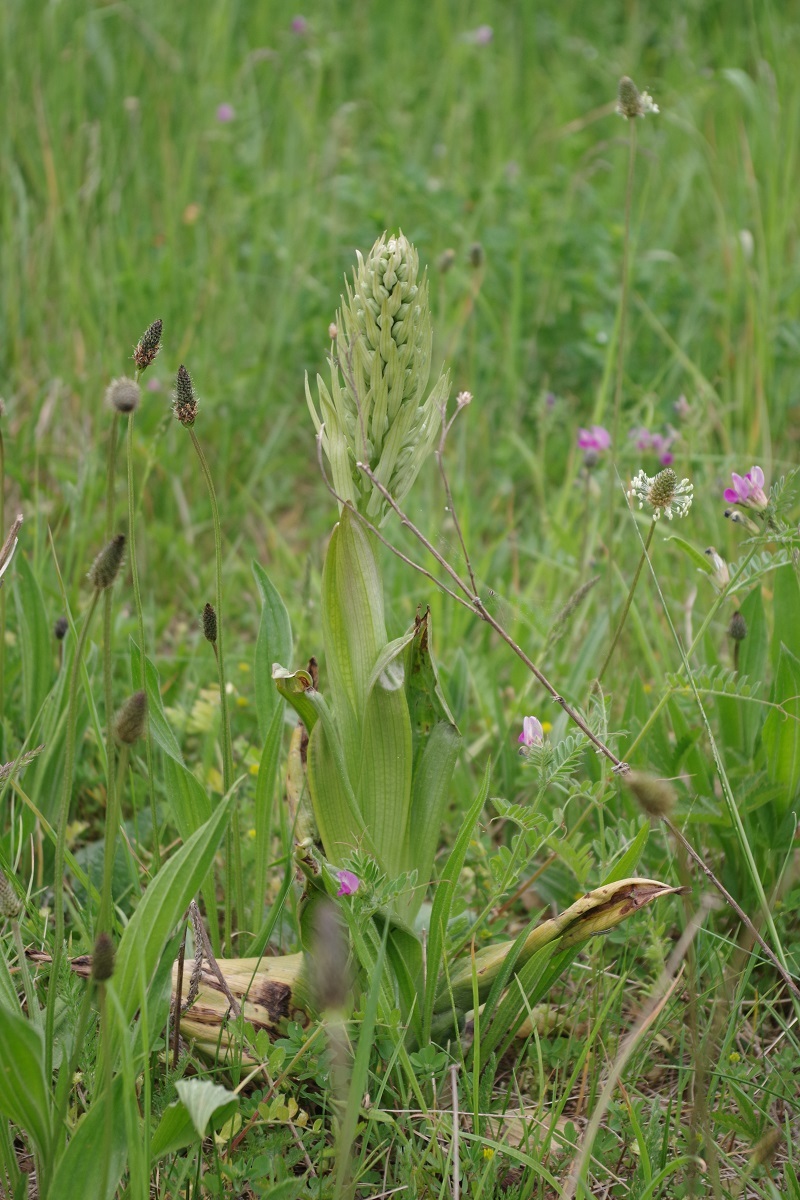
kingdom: Plantae
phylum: Tracheophyta
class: Liliopsida
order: Asparagales
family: Orchidaceae
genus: Himantoglossum
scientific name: Himantoglossum hircinum
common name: Lizard orchid
